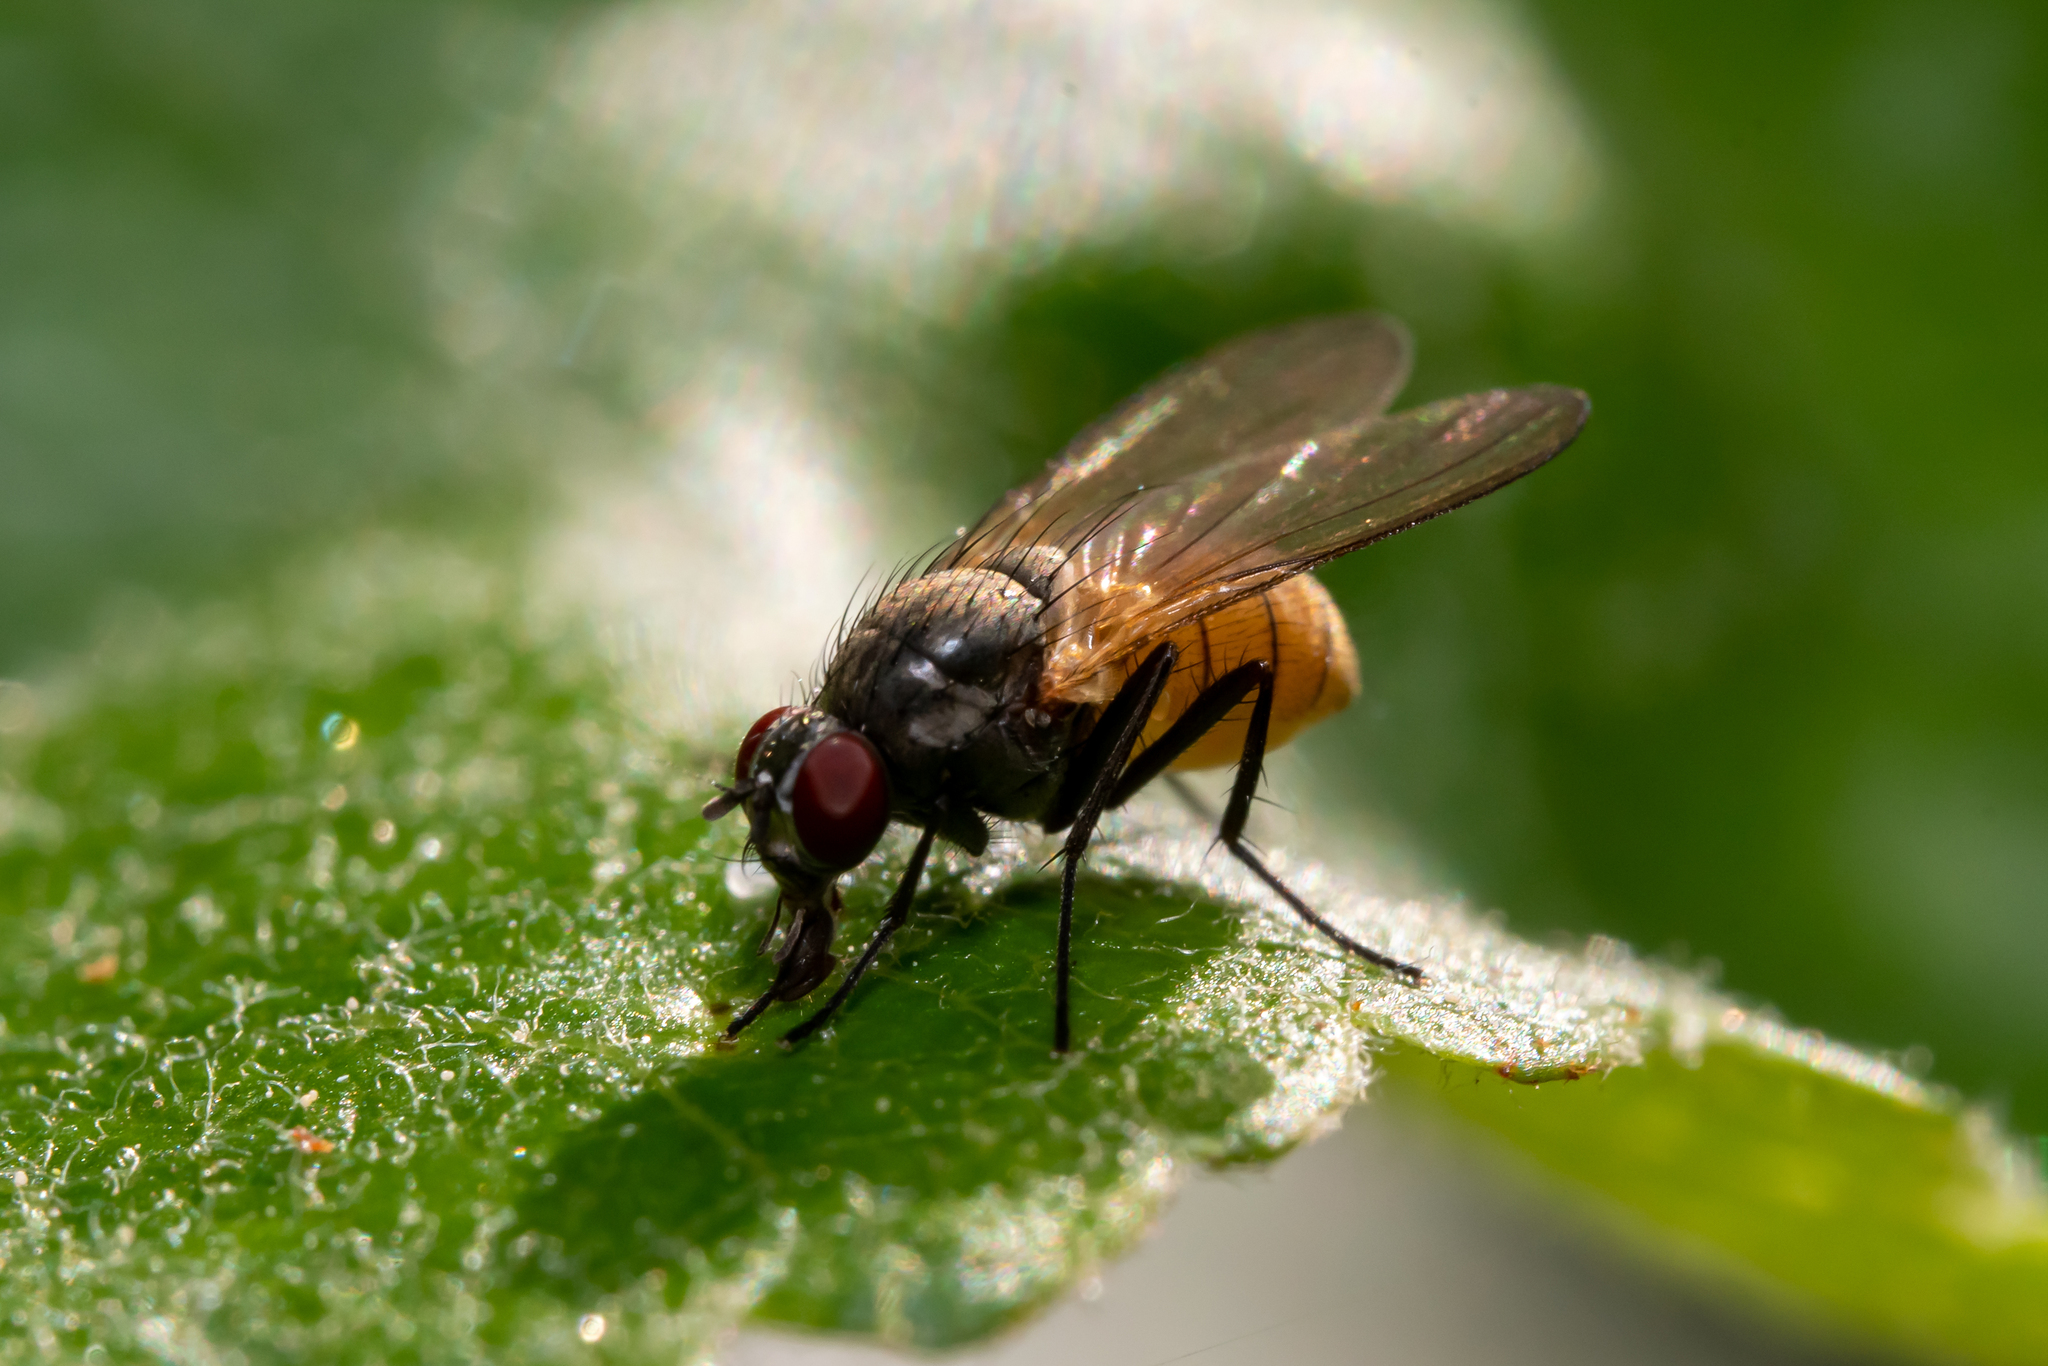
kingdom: Animalia
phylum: Arthropoda
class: Insecta
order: Diptera
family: Muscidae
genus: Thricops
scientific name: Thricops semicinereus
